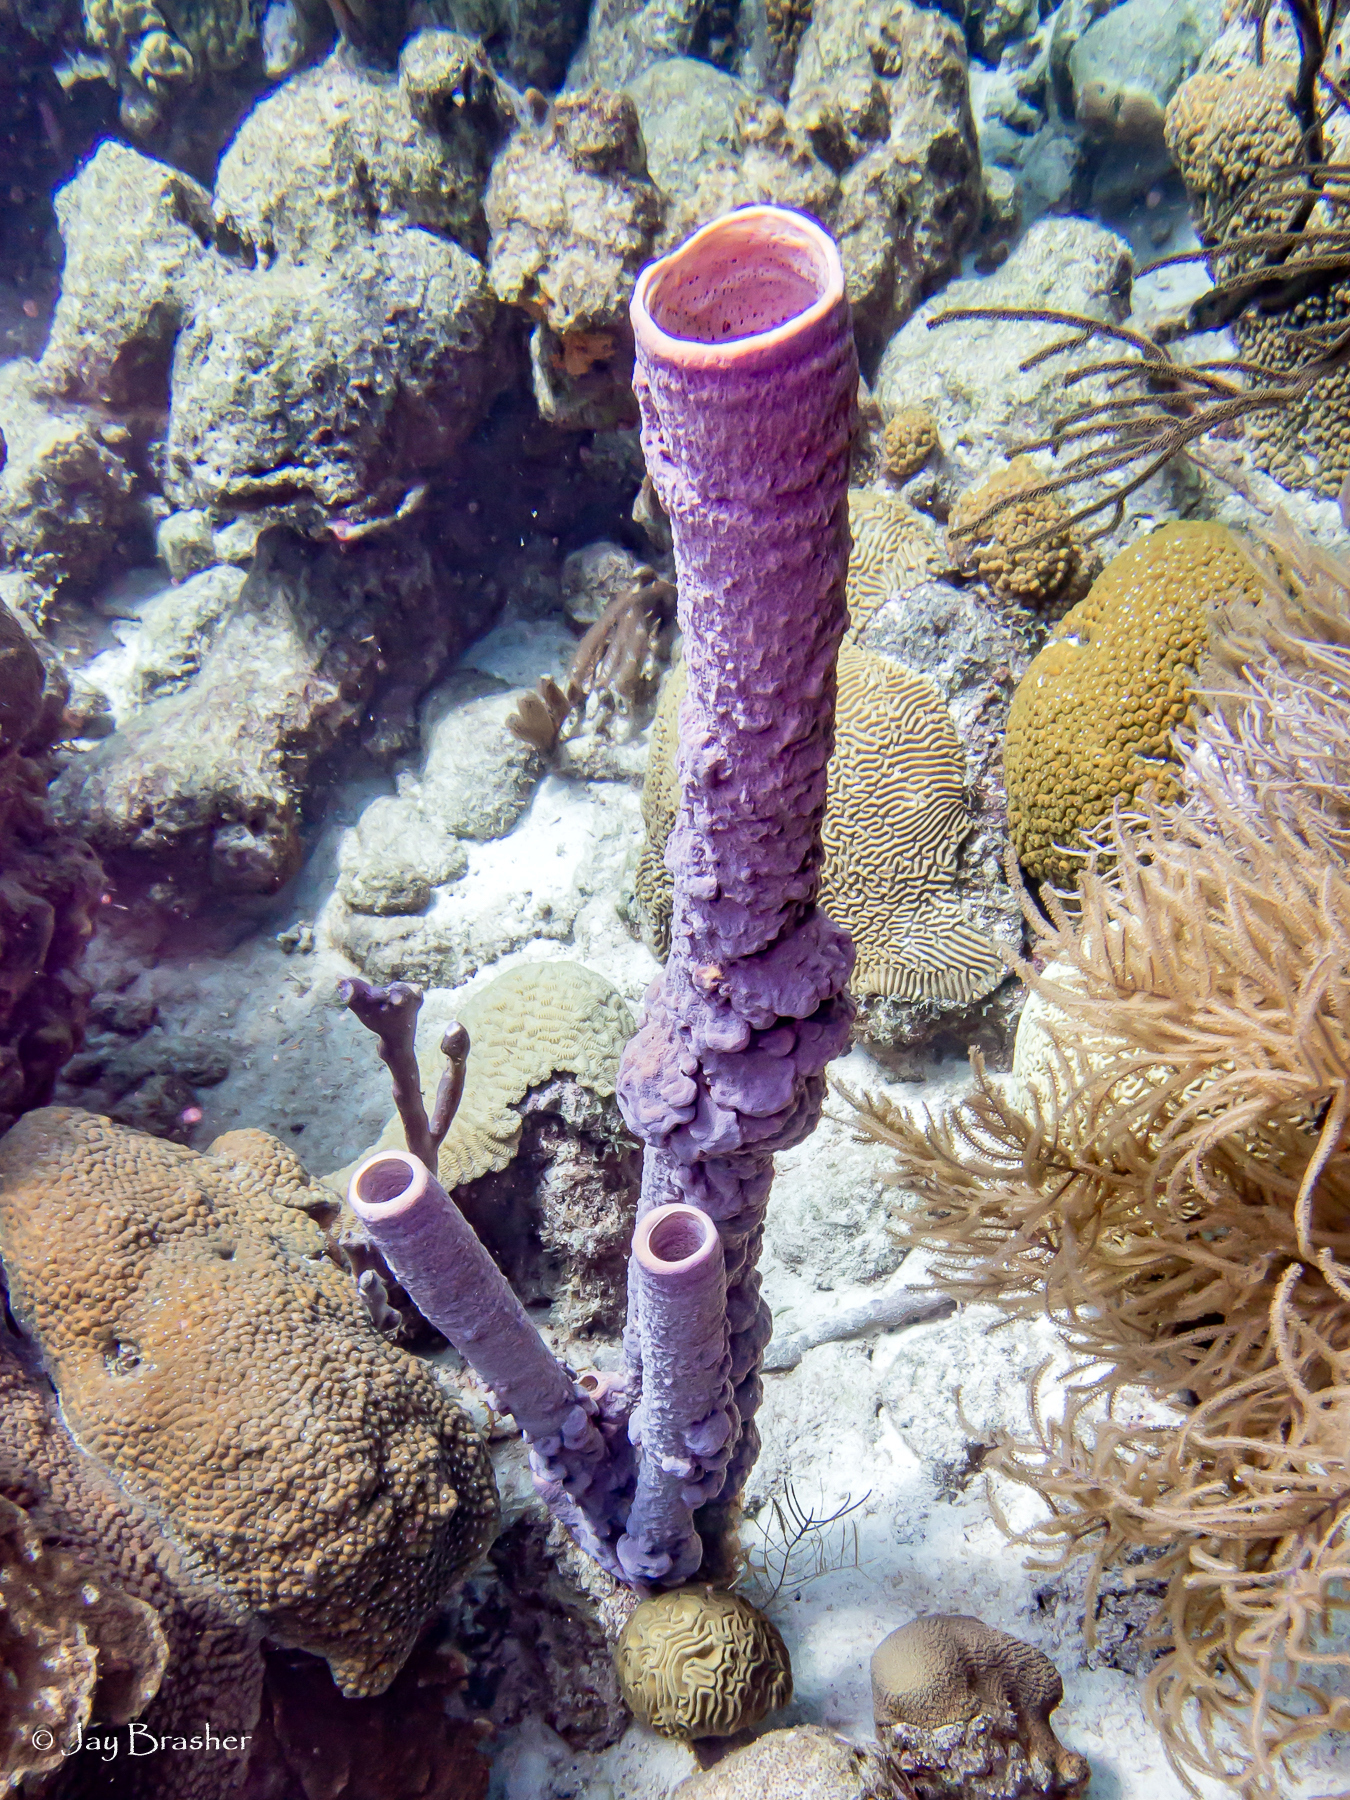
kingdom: Animalia
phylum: Porifera
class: Demospongiae
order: Verongiida
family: Aplysinidae
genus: Aplysina
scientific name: Aplysina archeri
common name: Stove-pipe sponge
